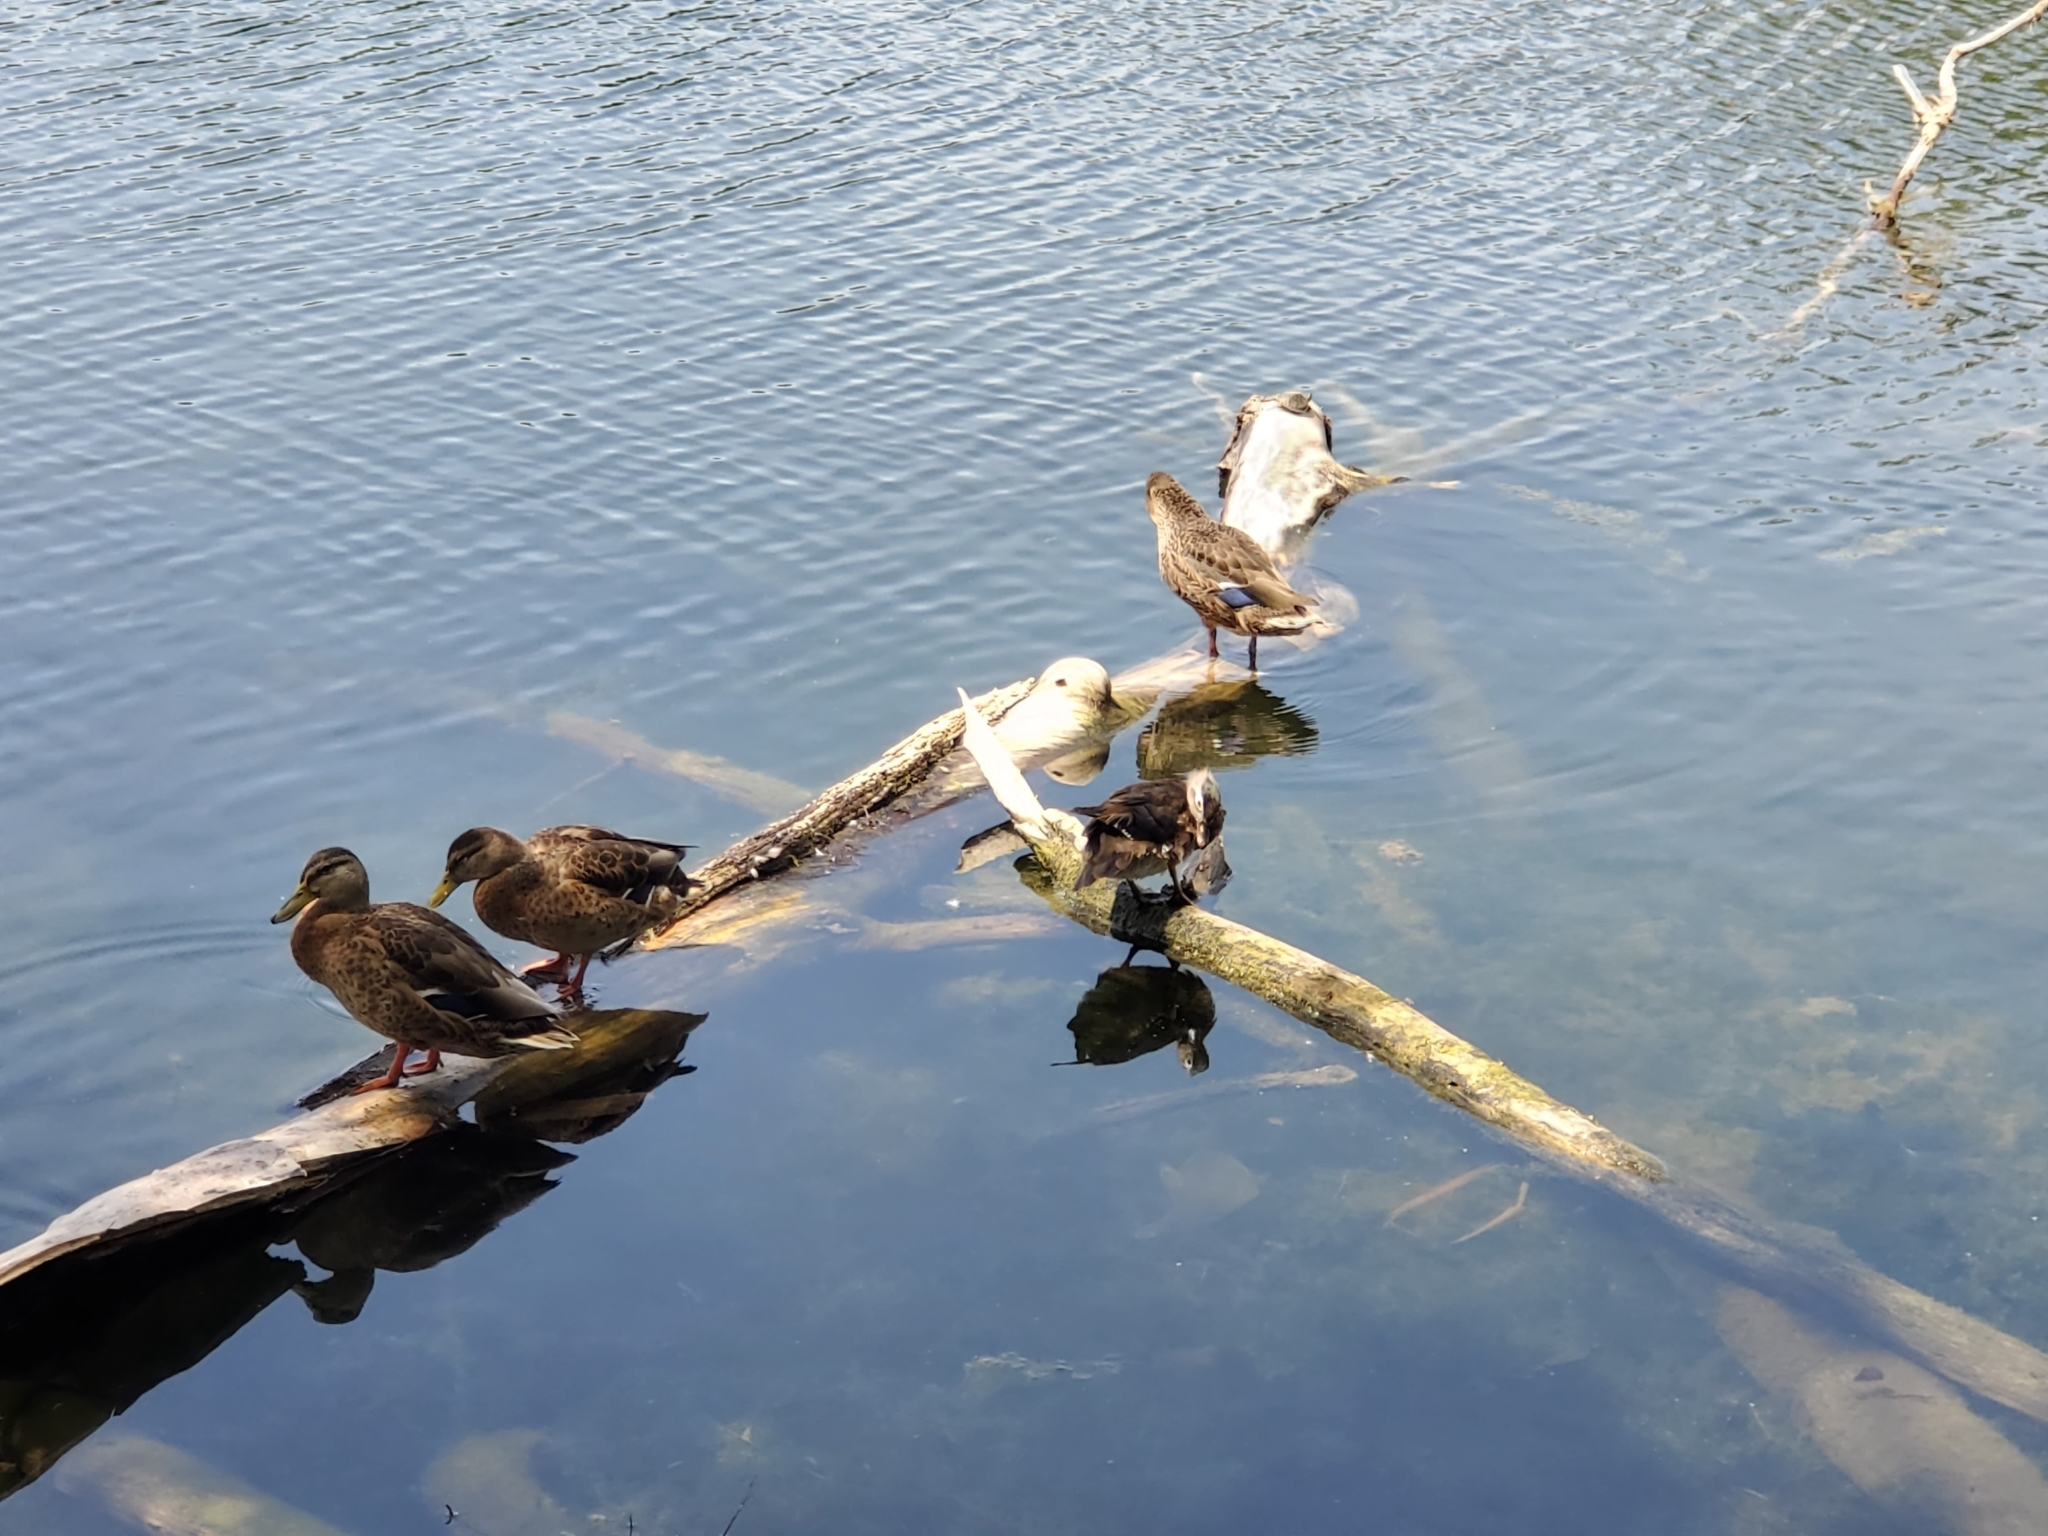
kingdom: Animalia
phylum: Chordata
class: Aves
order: Anseriformes
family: Anatidae
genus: Anas
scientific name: Anas platyrhynchos
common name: Mallard
